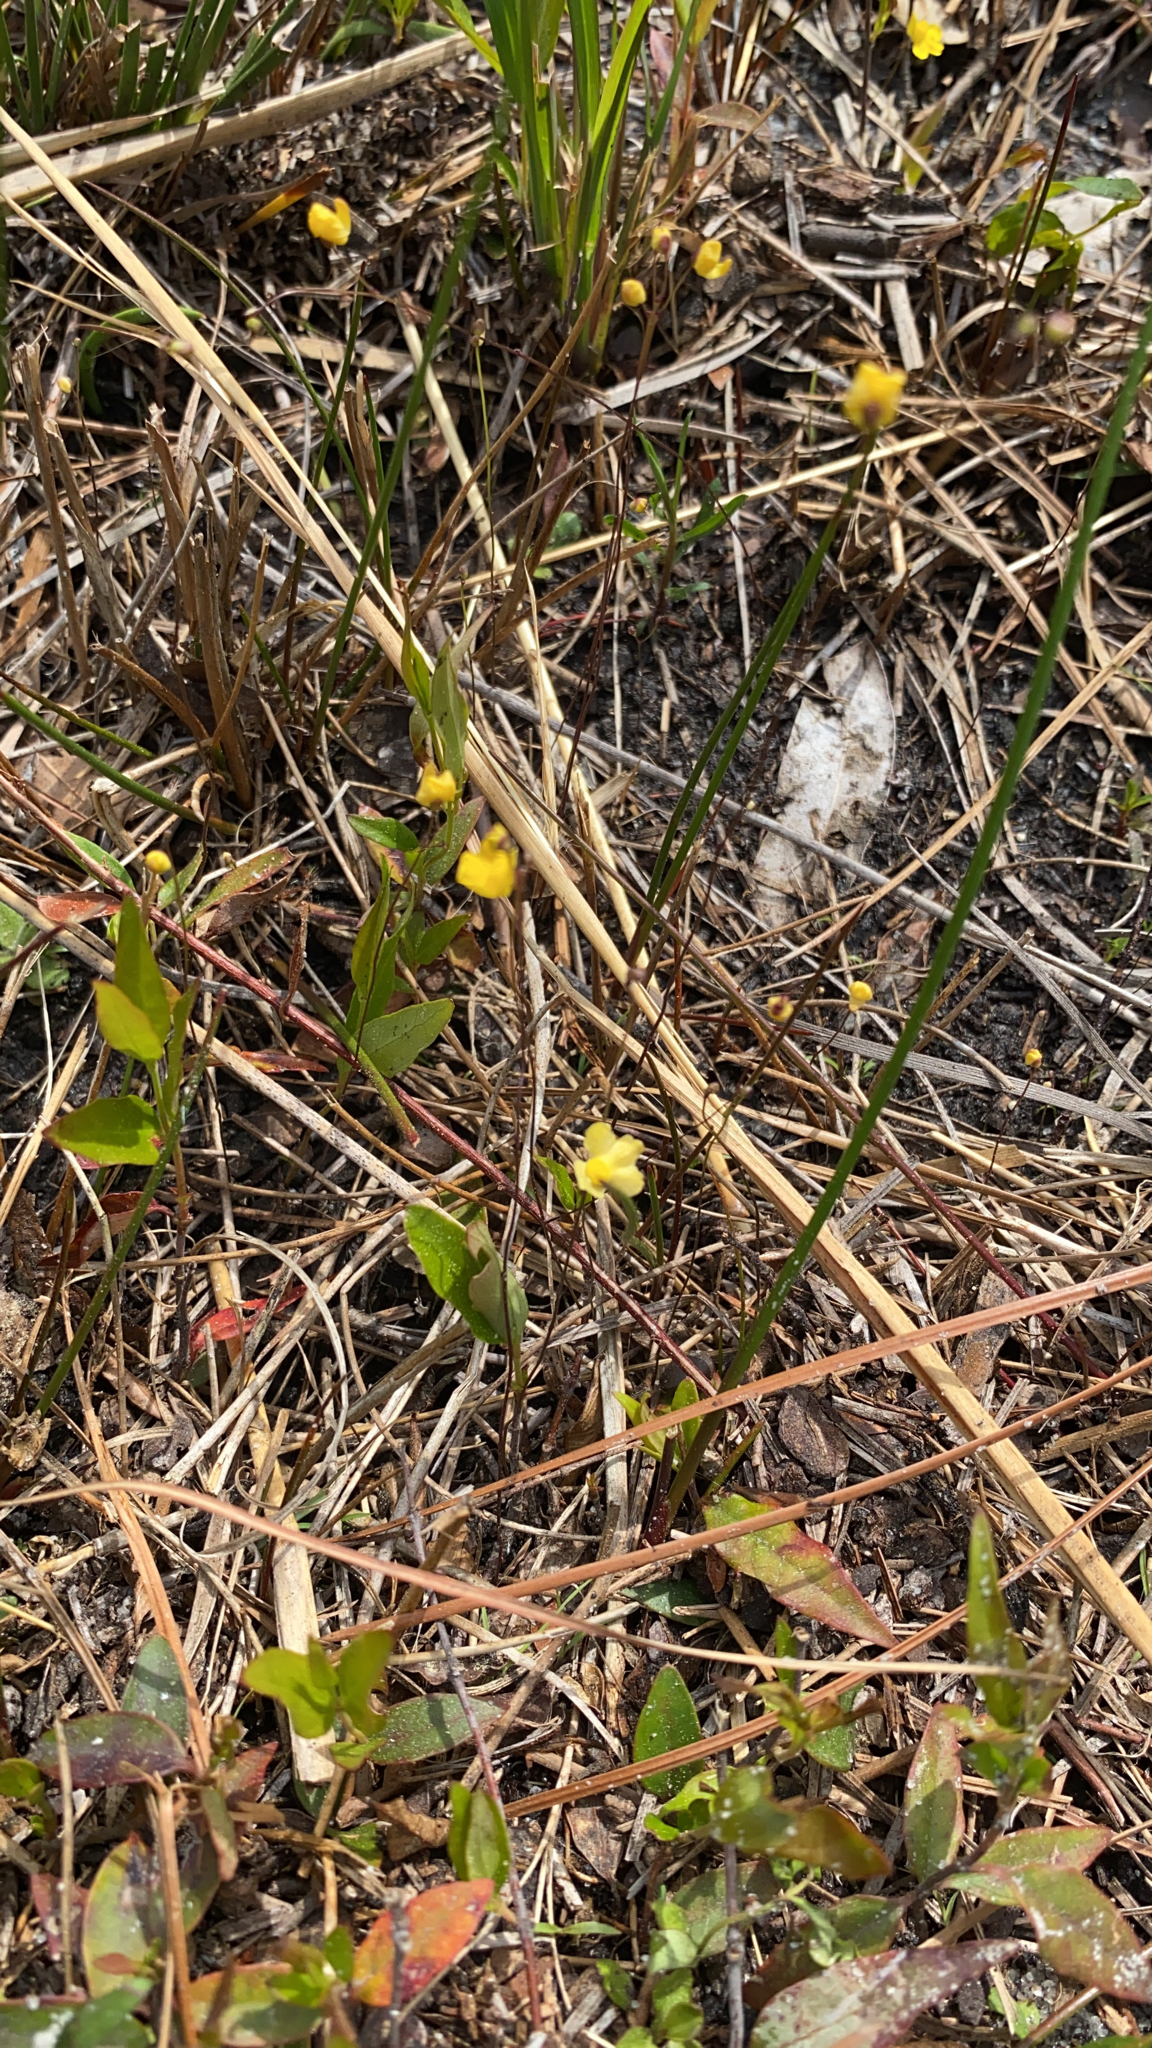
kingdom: Plantae
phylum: Tracheophyta
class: Magnoliopsida
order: Lamiales
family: Lentibulariaceae
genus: Utricularia
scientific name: Utricularia subulata
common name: Tiny bladderwort
